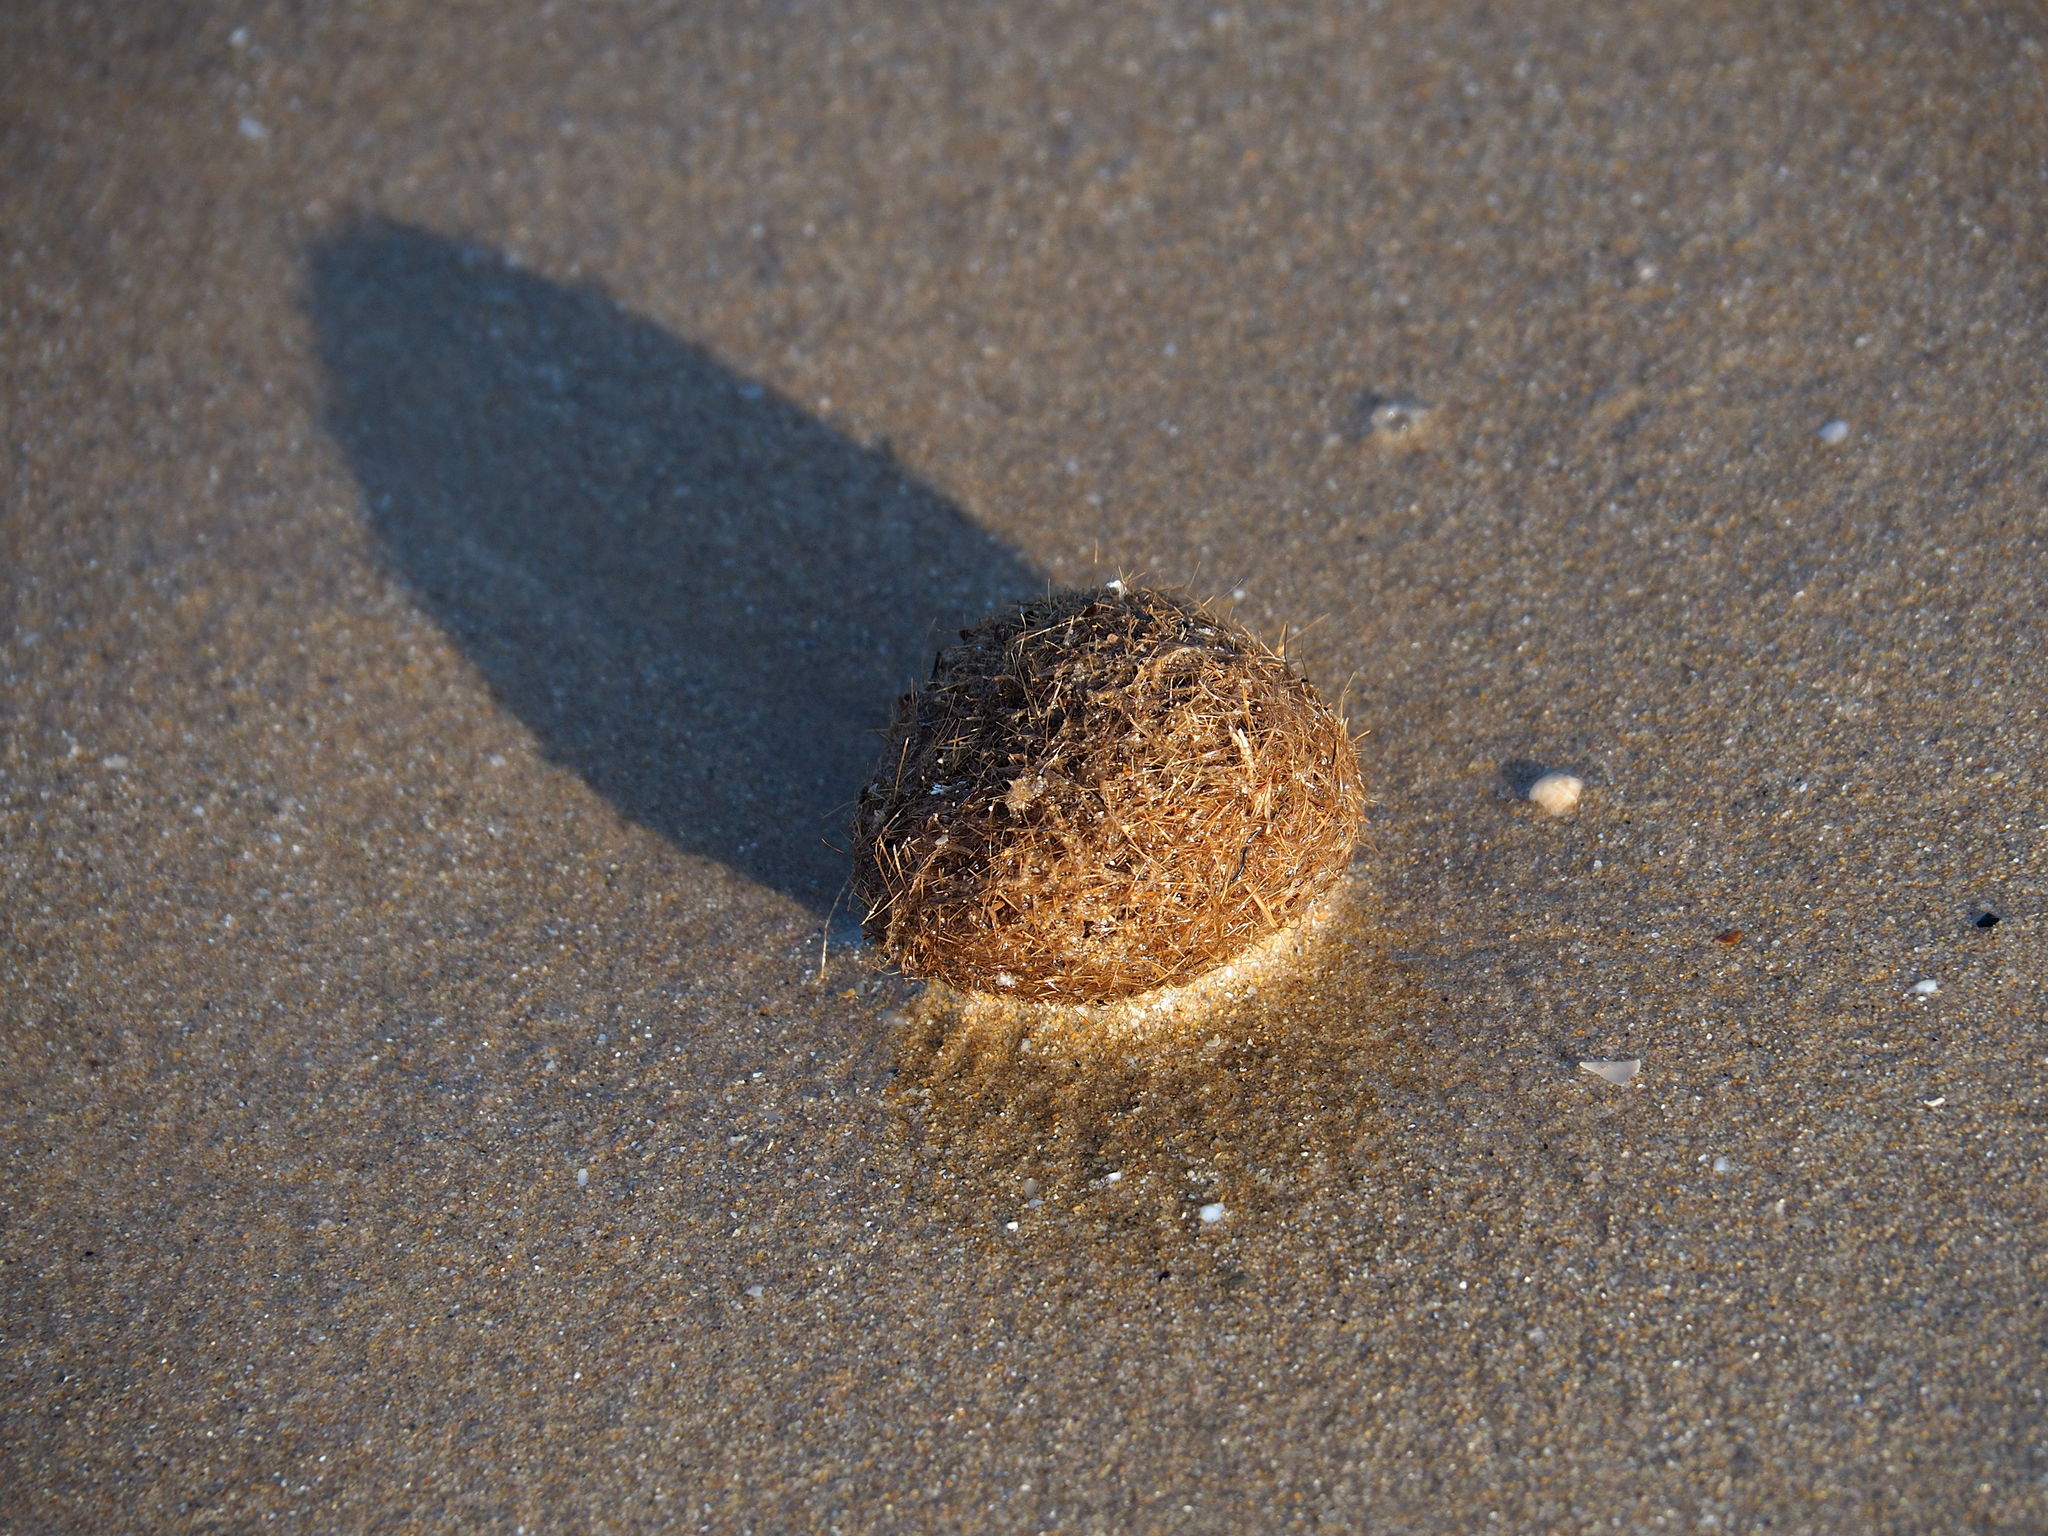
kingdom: Plantae
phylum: Tracheophyta
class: Liliopsida
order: Alismatales
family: Posidoniaceae
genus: Posidonia
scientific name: Posidonia oceanica
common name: Mediterranean tapeweed
